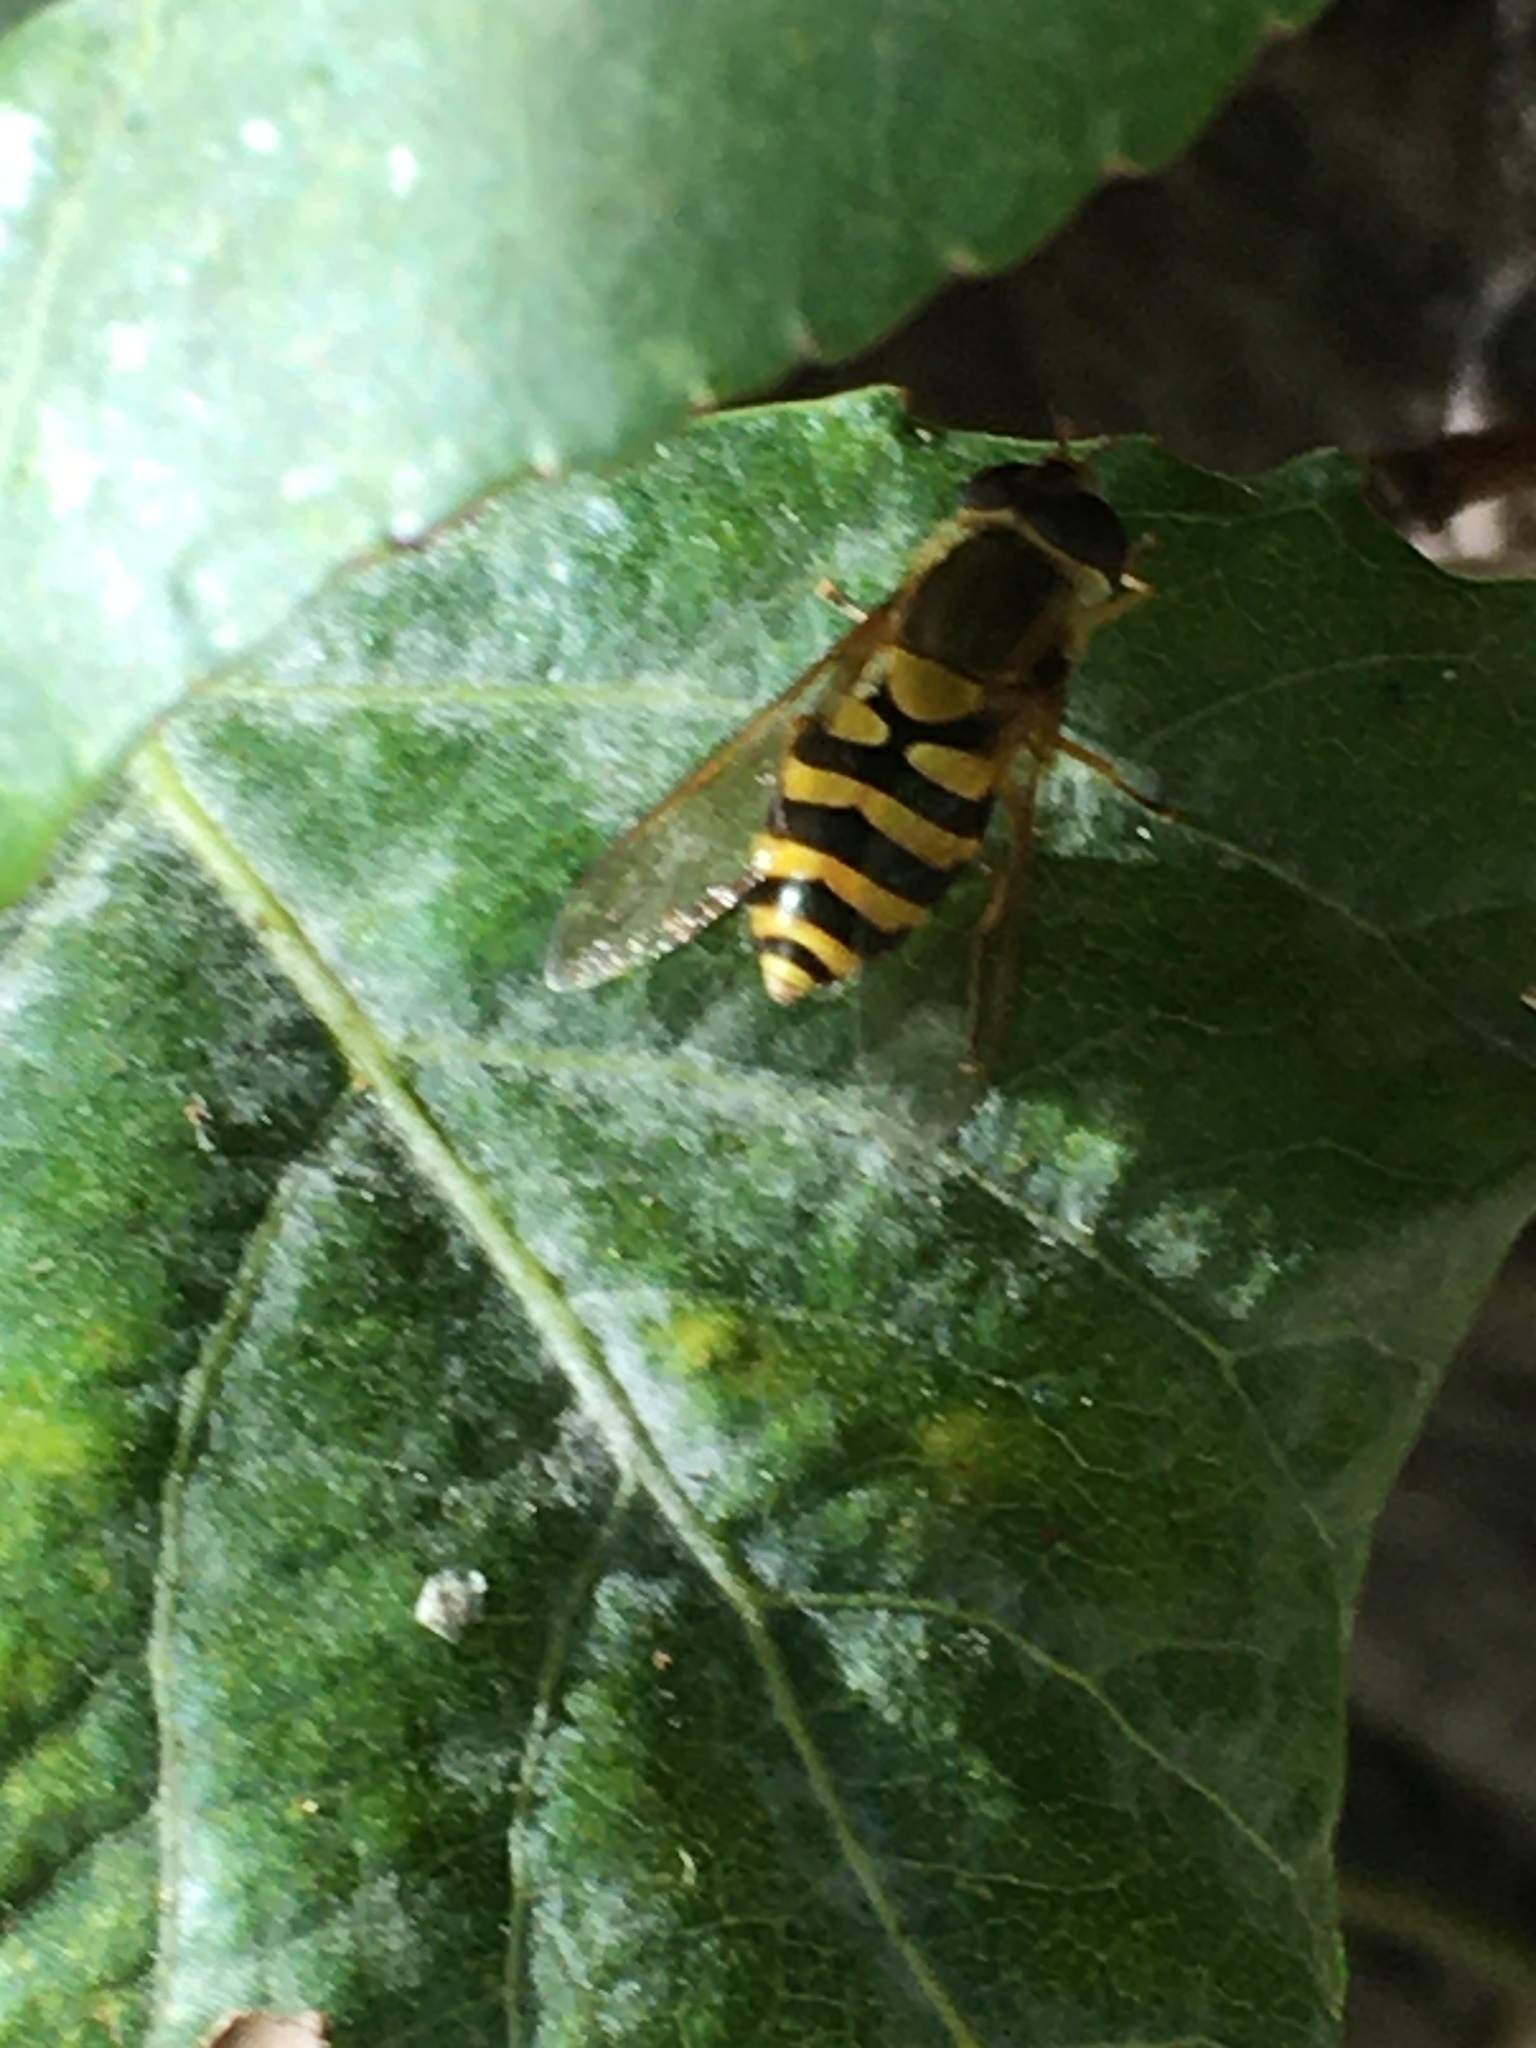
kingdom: Animalia
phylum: Arthropoda
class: Insecta
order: Diptera
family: Syrphidae
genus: Syrphus
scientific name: Syrphus
